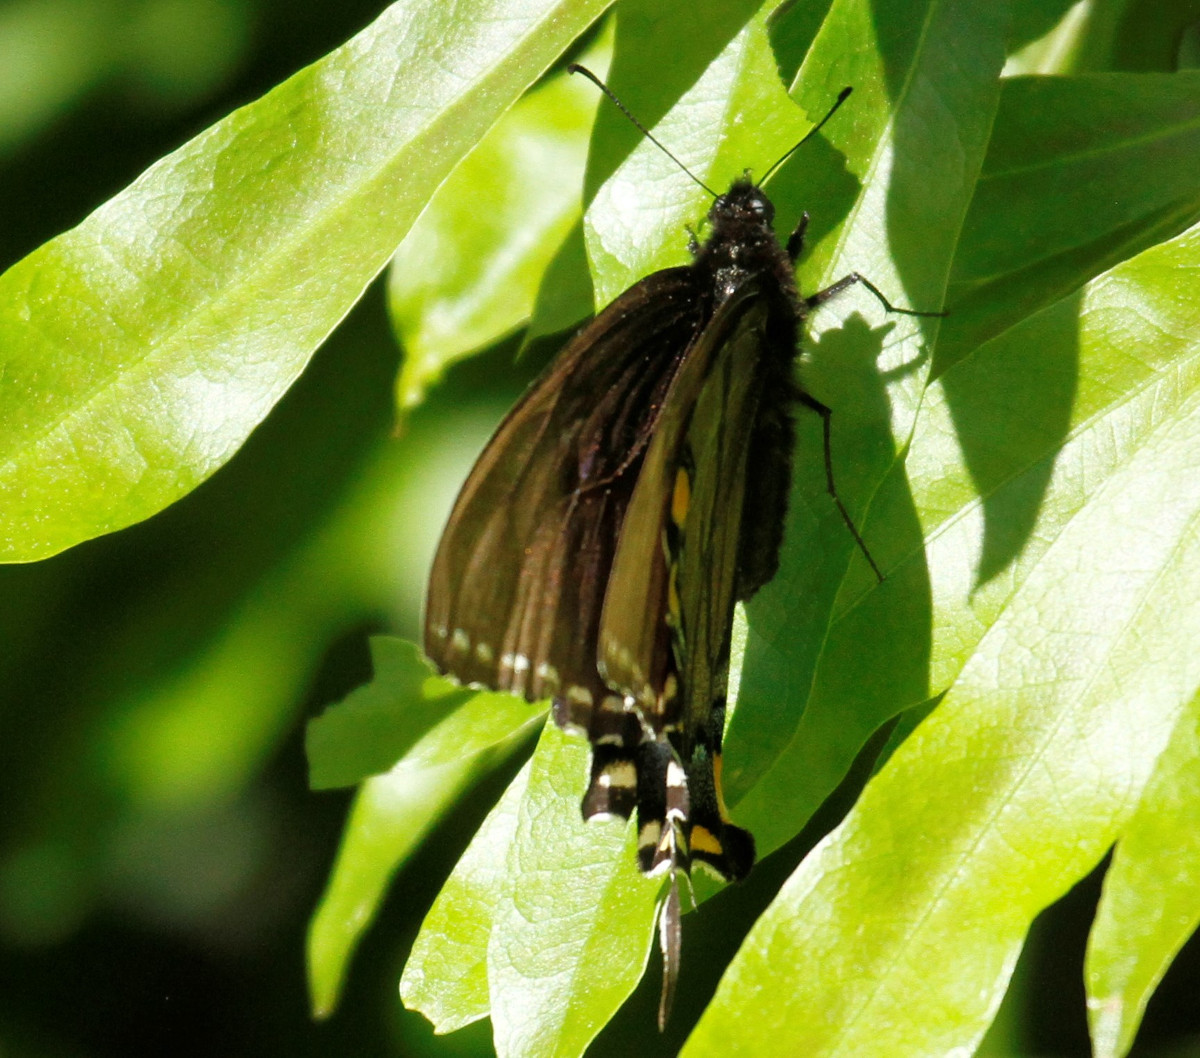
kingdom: Animalia
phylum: Arthropoda
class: Insecta
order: Lepidoptera
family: Papilionidae
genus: Papilio
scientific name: Papilio glaucus
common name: Tiger swallowtail
